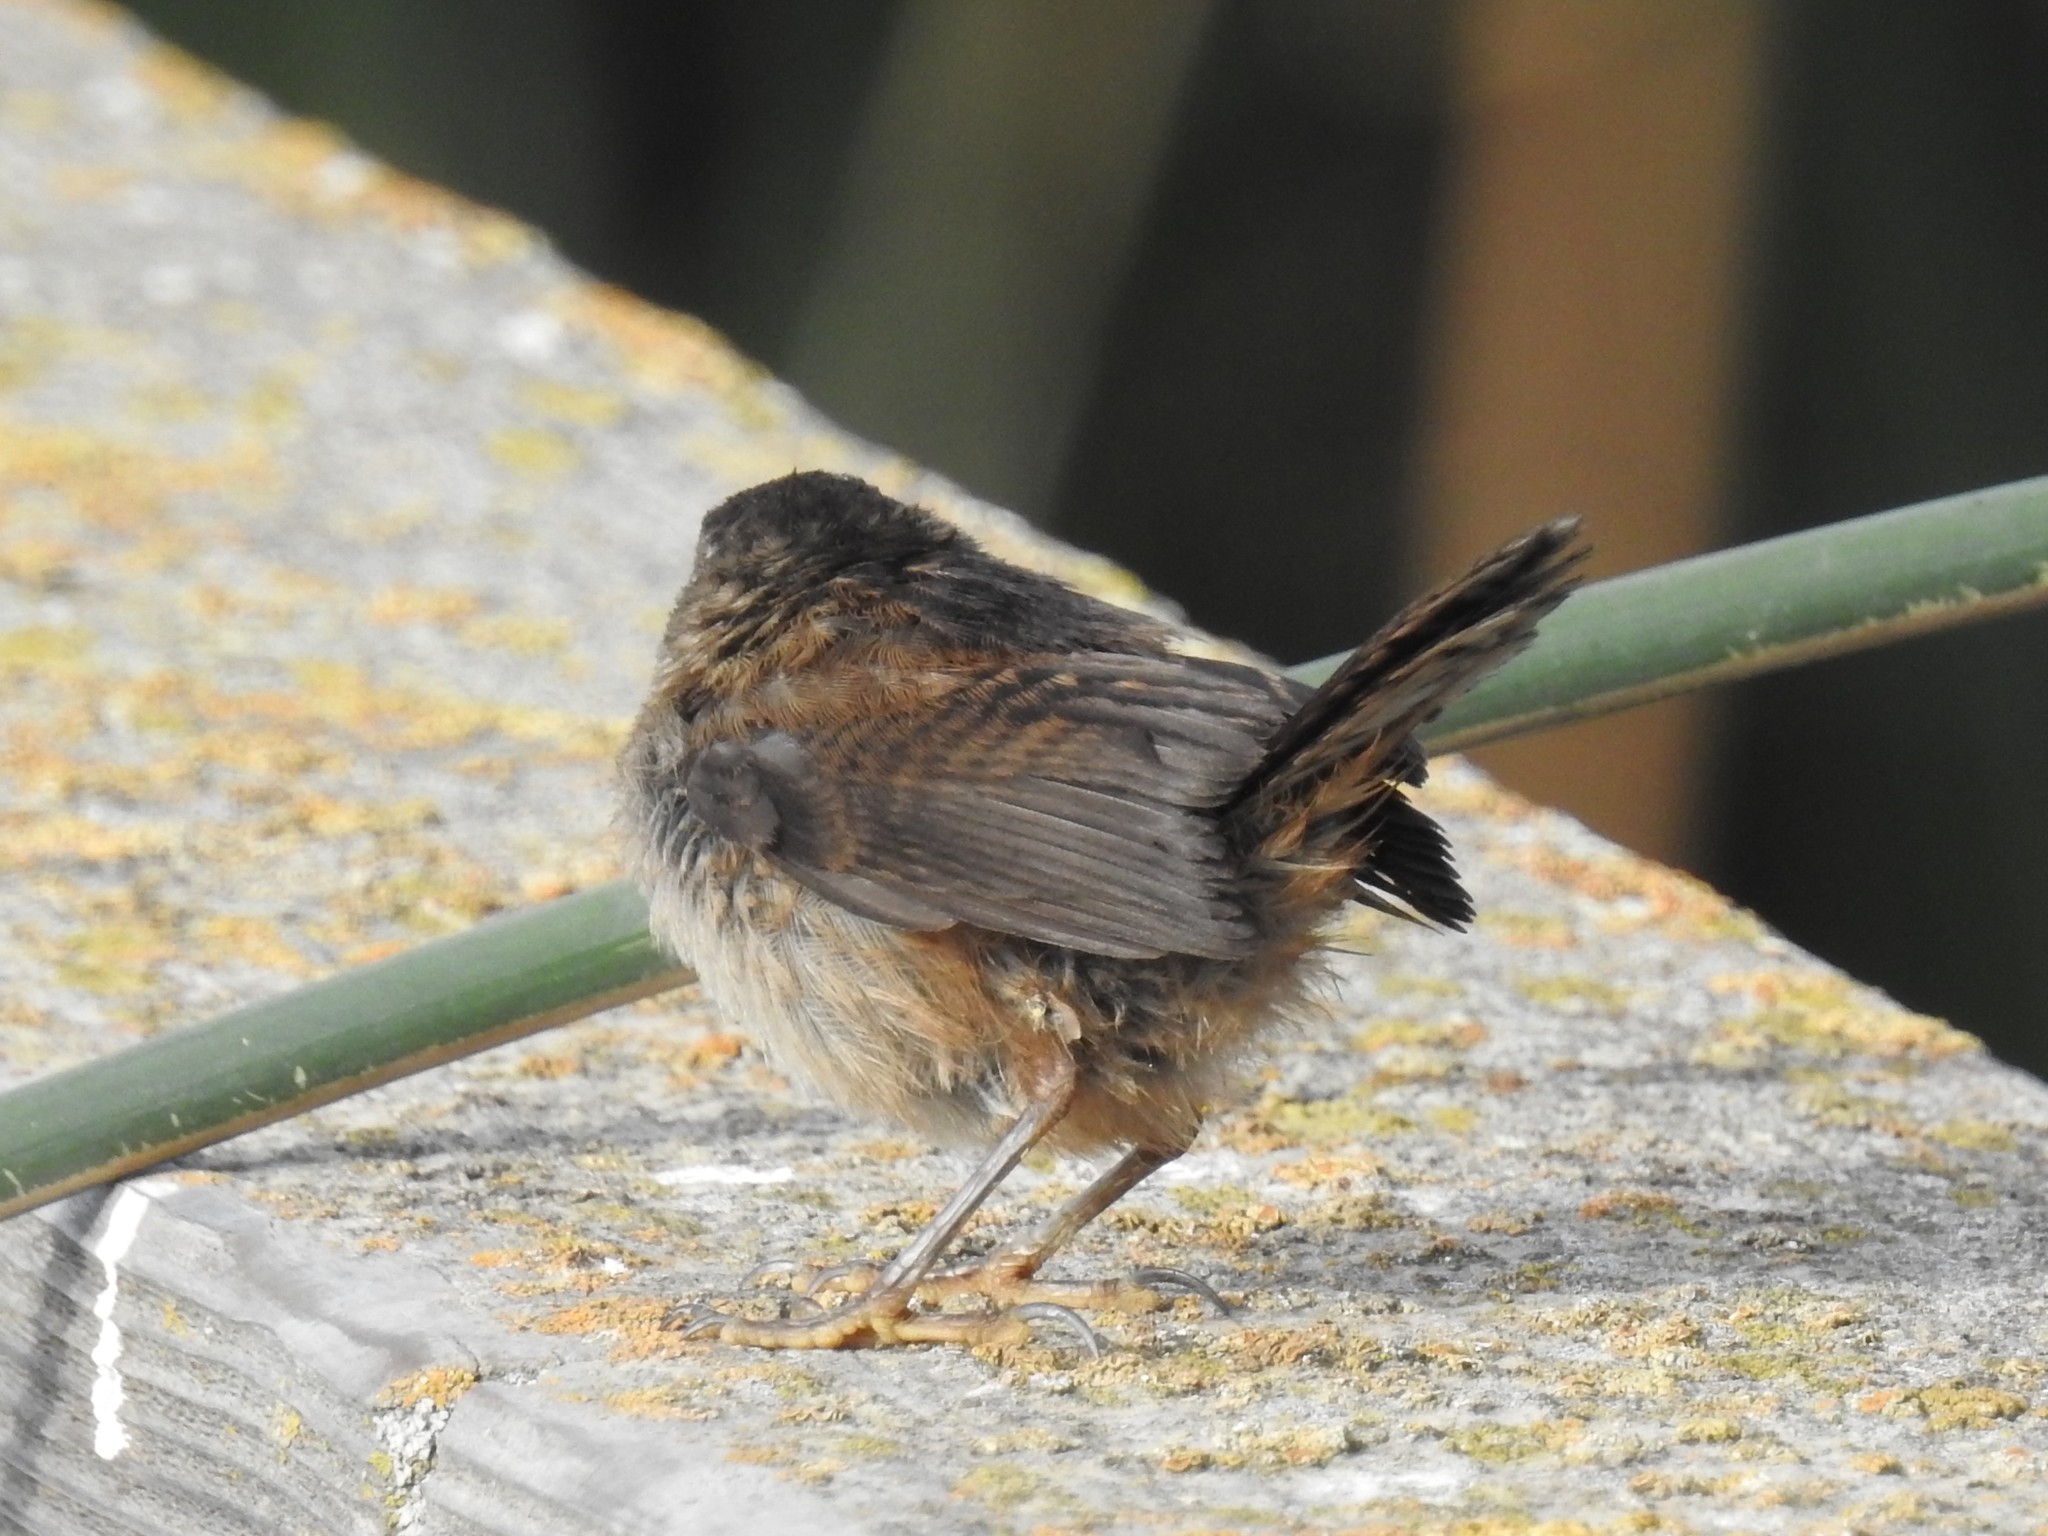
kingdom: Animalia
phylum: Chordata
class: Aves
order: Passeriformes
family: Troglodytidae
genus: Cistothorus
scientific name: Cistothorus palustris
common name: Marsh wren
